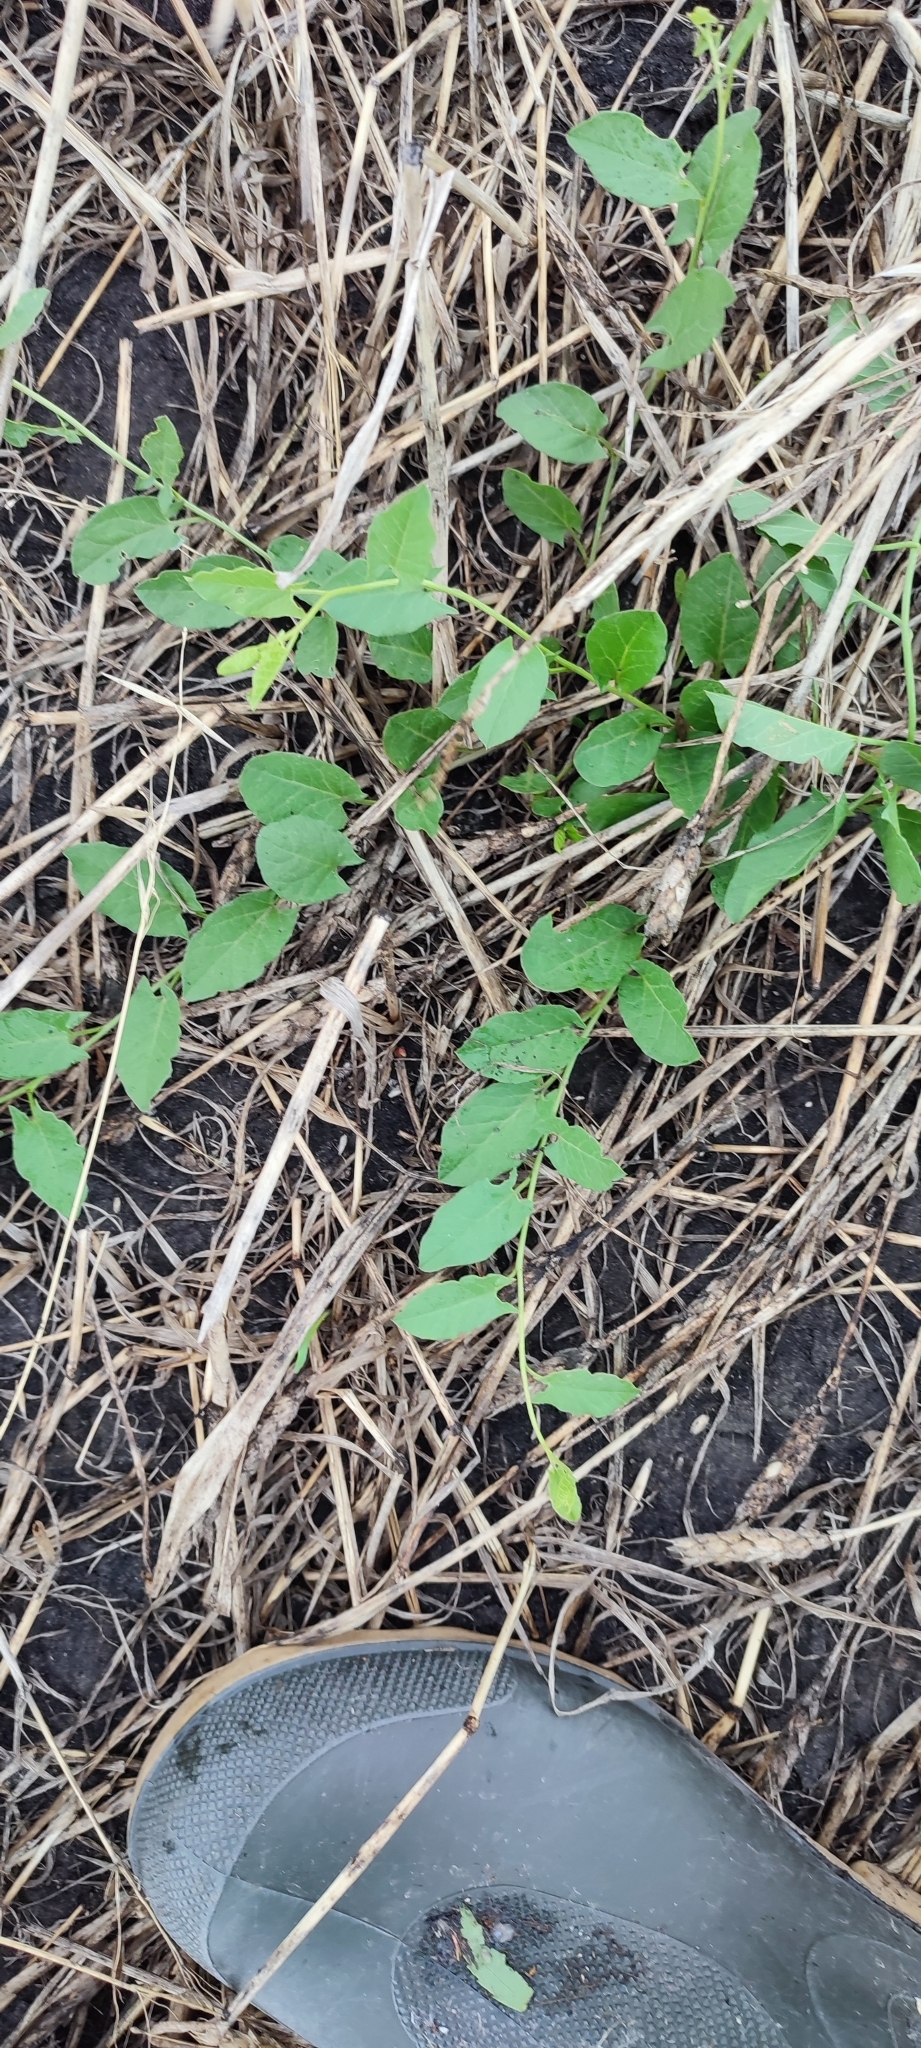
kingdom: Plantae
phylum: Tracheophyta
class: Magnoliopsida
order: Solanales
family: Convolvulaceae
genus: Convolvulus
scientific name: Convolvulus arvensis
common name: Field bindweed
